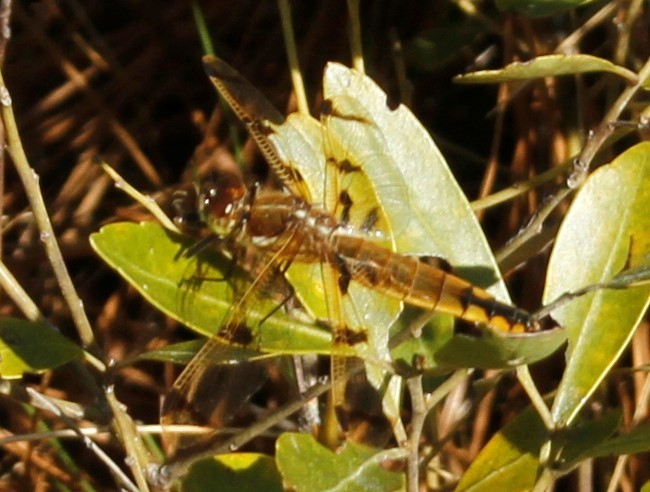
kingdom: Animalia
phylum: Arthropoda
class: Insecta
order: Odonata
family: Libellulidae
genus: Libellula
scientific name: Libellula semifasciata
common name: Painted skimmer
